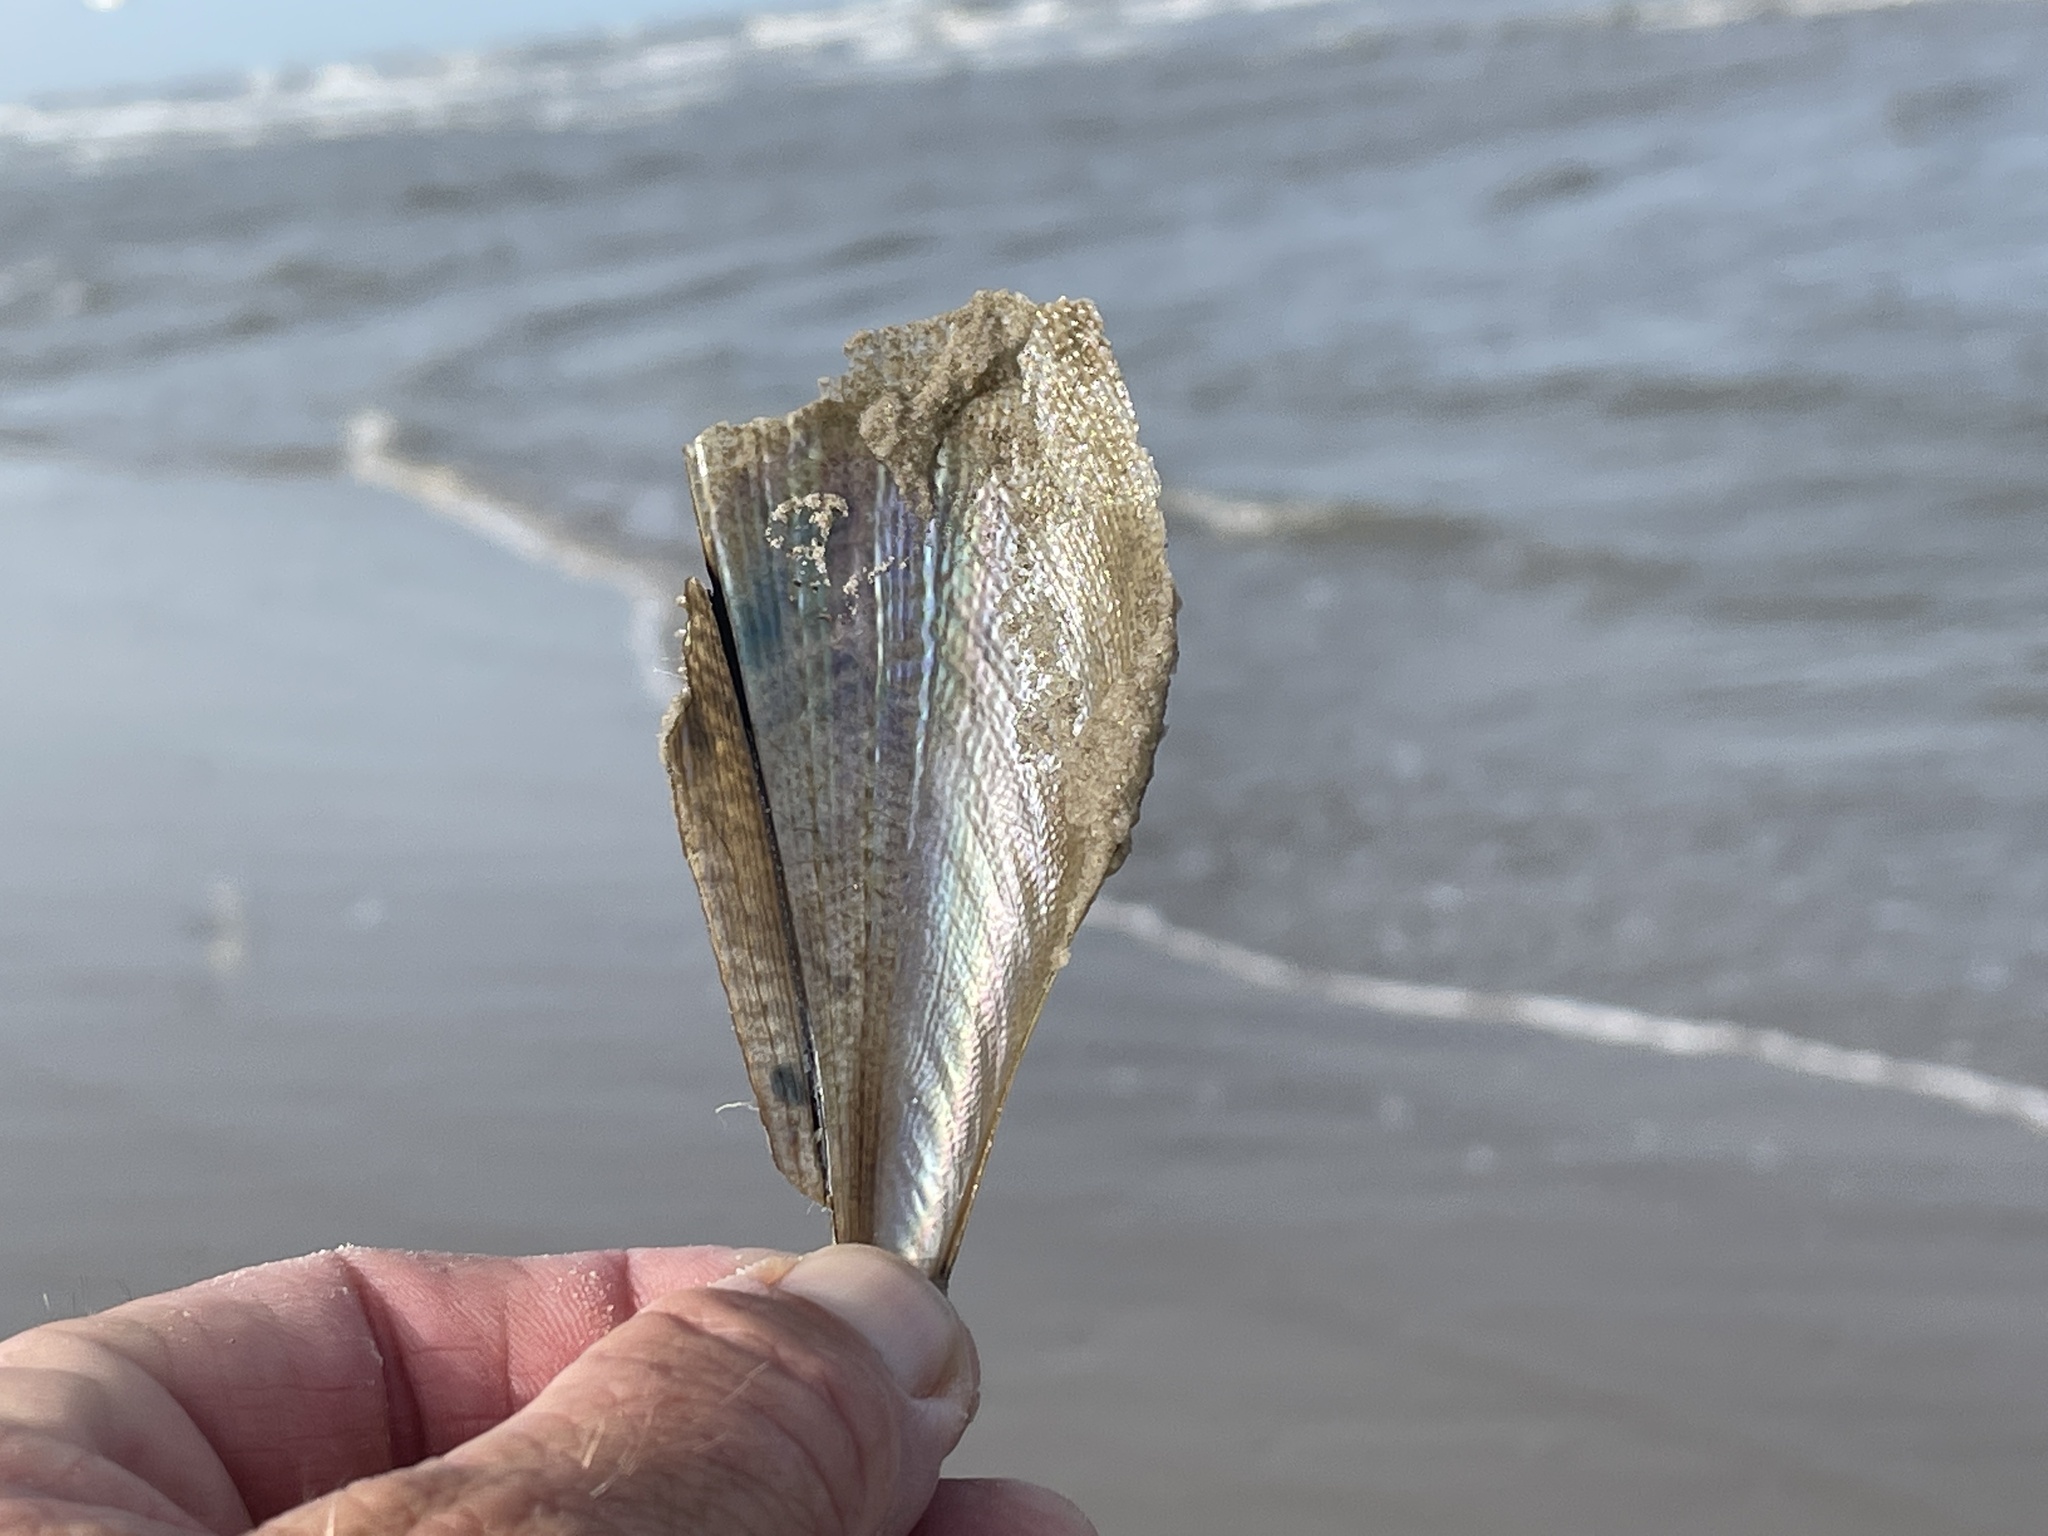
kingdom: Animalia
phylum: Mollusca
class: Bivalvia
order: Ostreida
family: Pinnidae
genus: Atrina
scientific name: Atrina serrata
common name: Saw-toothed penshell
